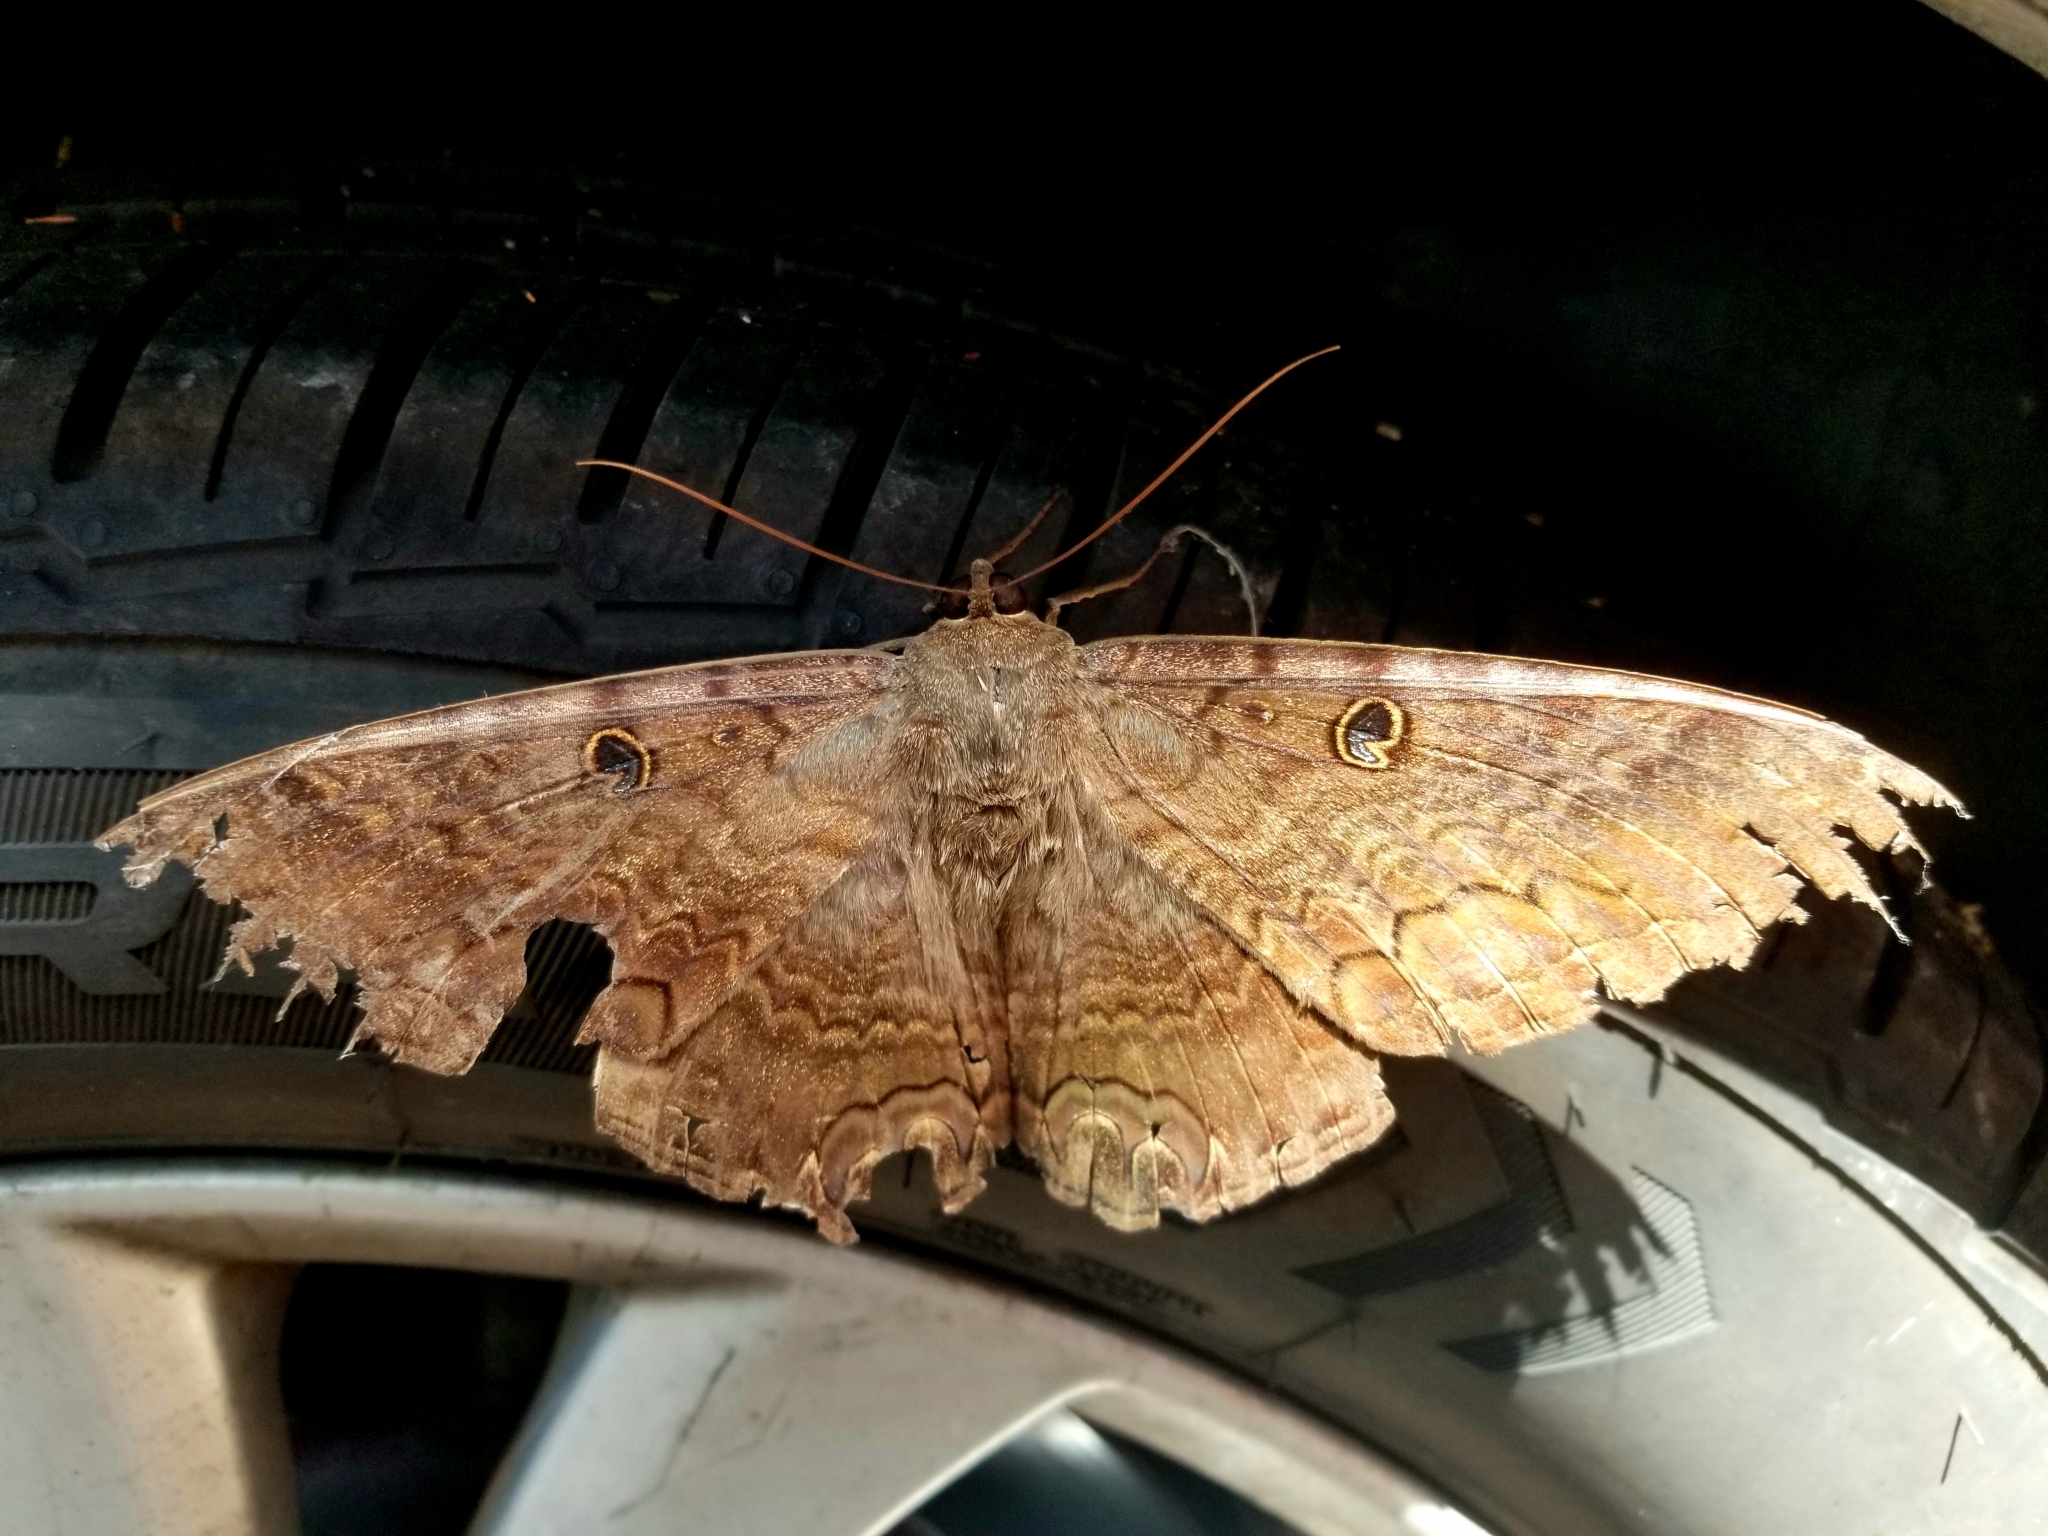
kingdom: Animalia
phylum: Arthropoda
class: Insecta
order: Lepidoptera
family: Erebidae
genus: Ascalapha
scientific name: Ascalapha odorata
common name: Black witch
